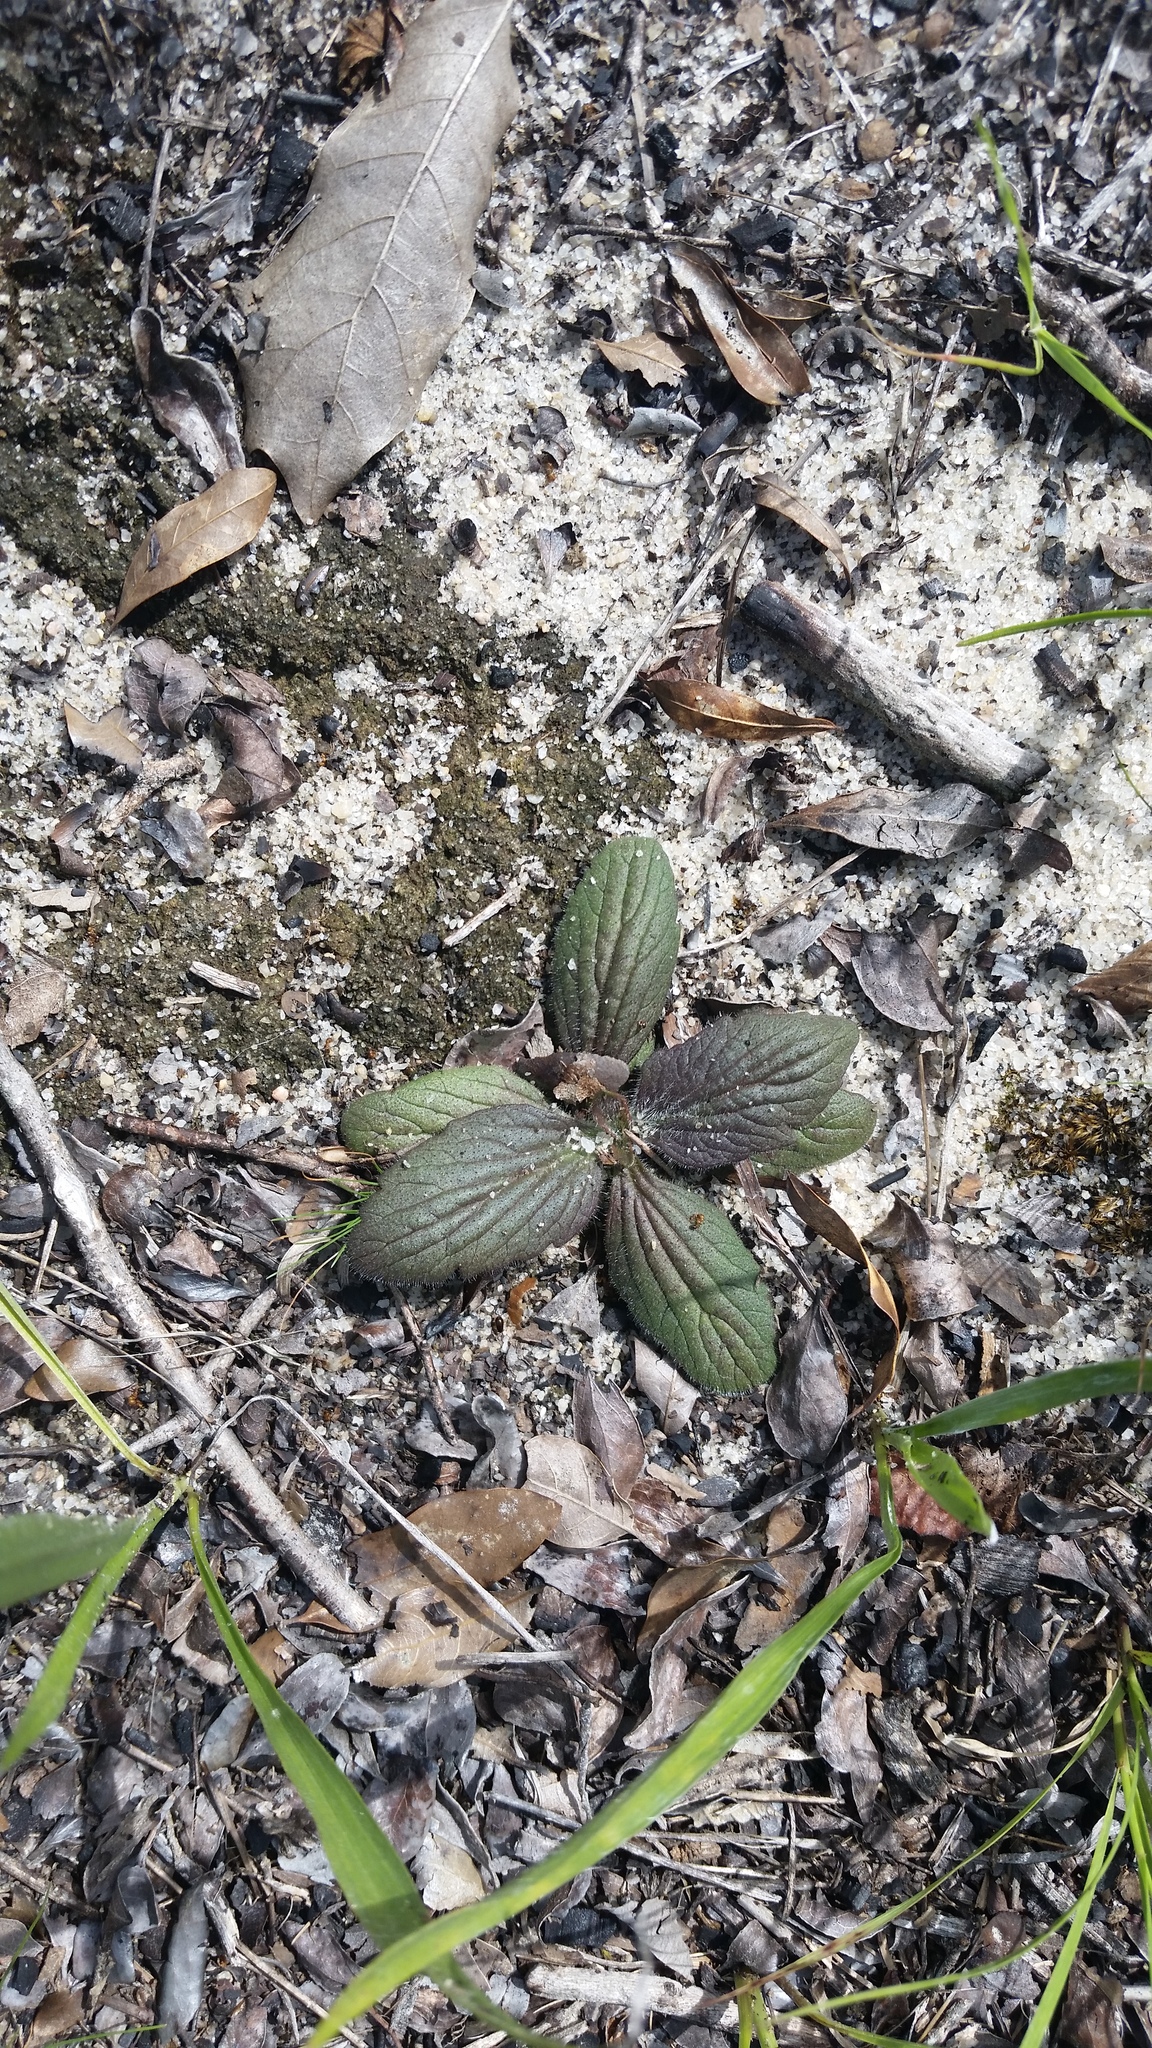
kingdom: Plantae
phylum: Tracheophyta
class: Magnoliopsida
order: Lamiales
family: Orobanchaceae
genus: Aureolaria
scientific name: Aureolaria pectinata
